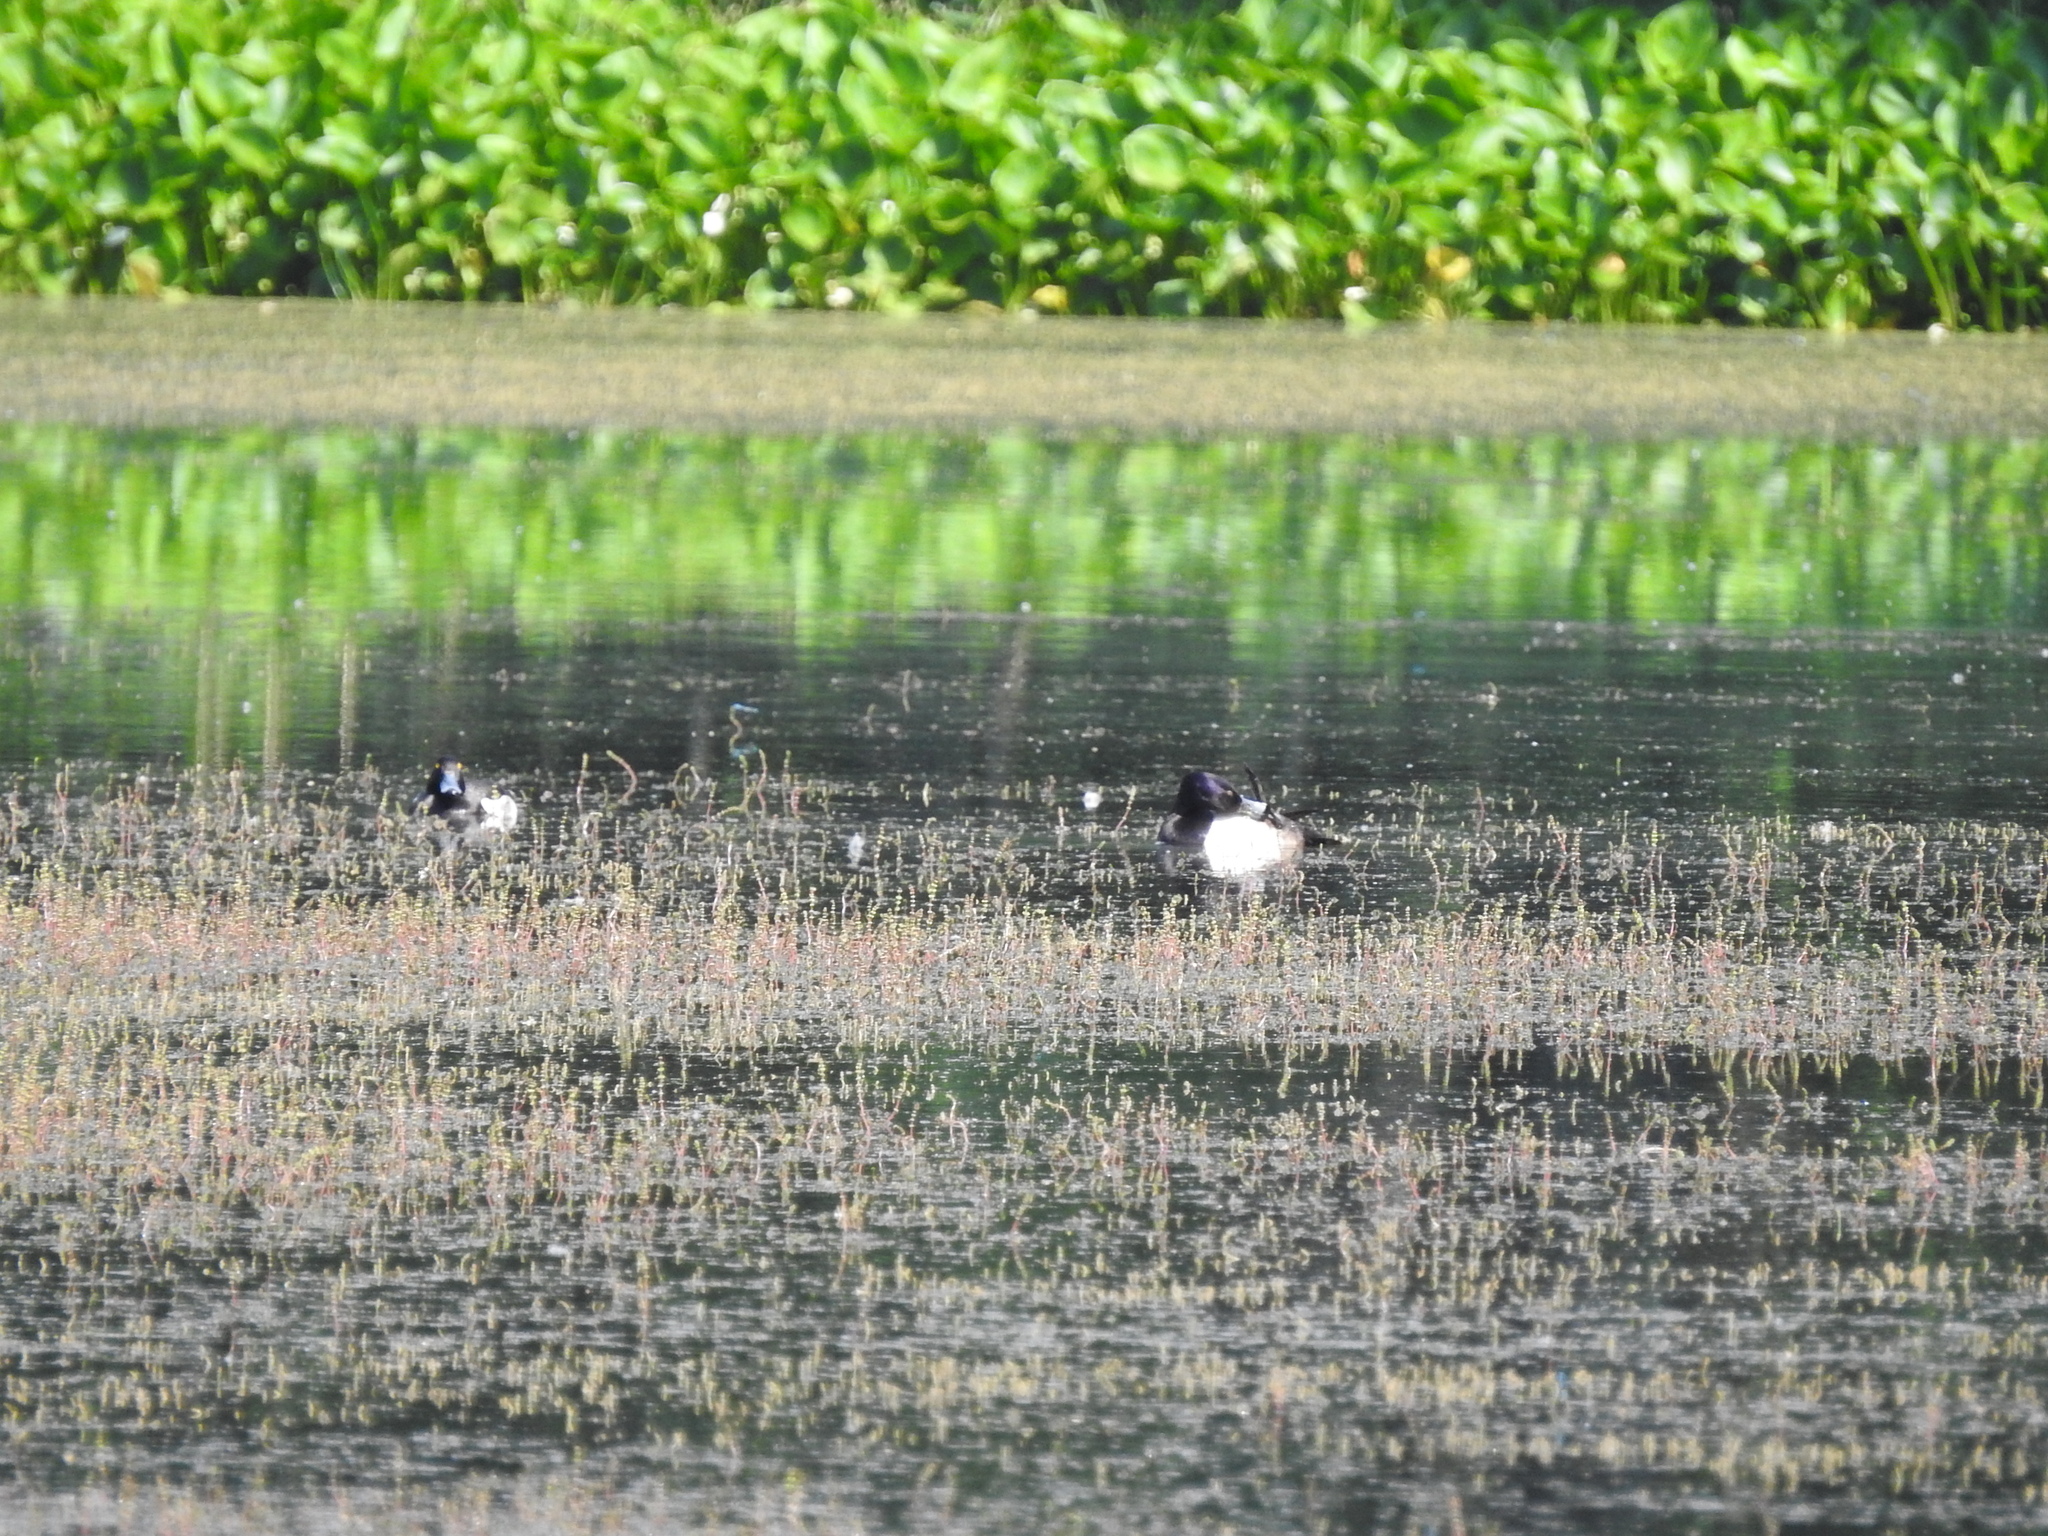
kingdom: Animalia
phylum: Chordata
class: Aves
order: Anseriformes
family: Anatidae
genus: Aythya
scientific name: Aythya fuligula
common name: Tufted duck
